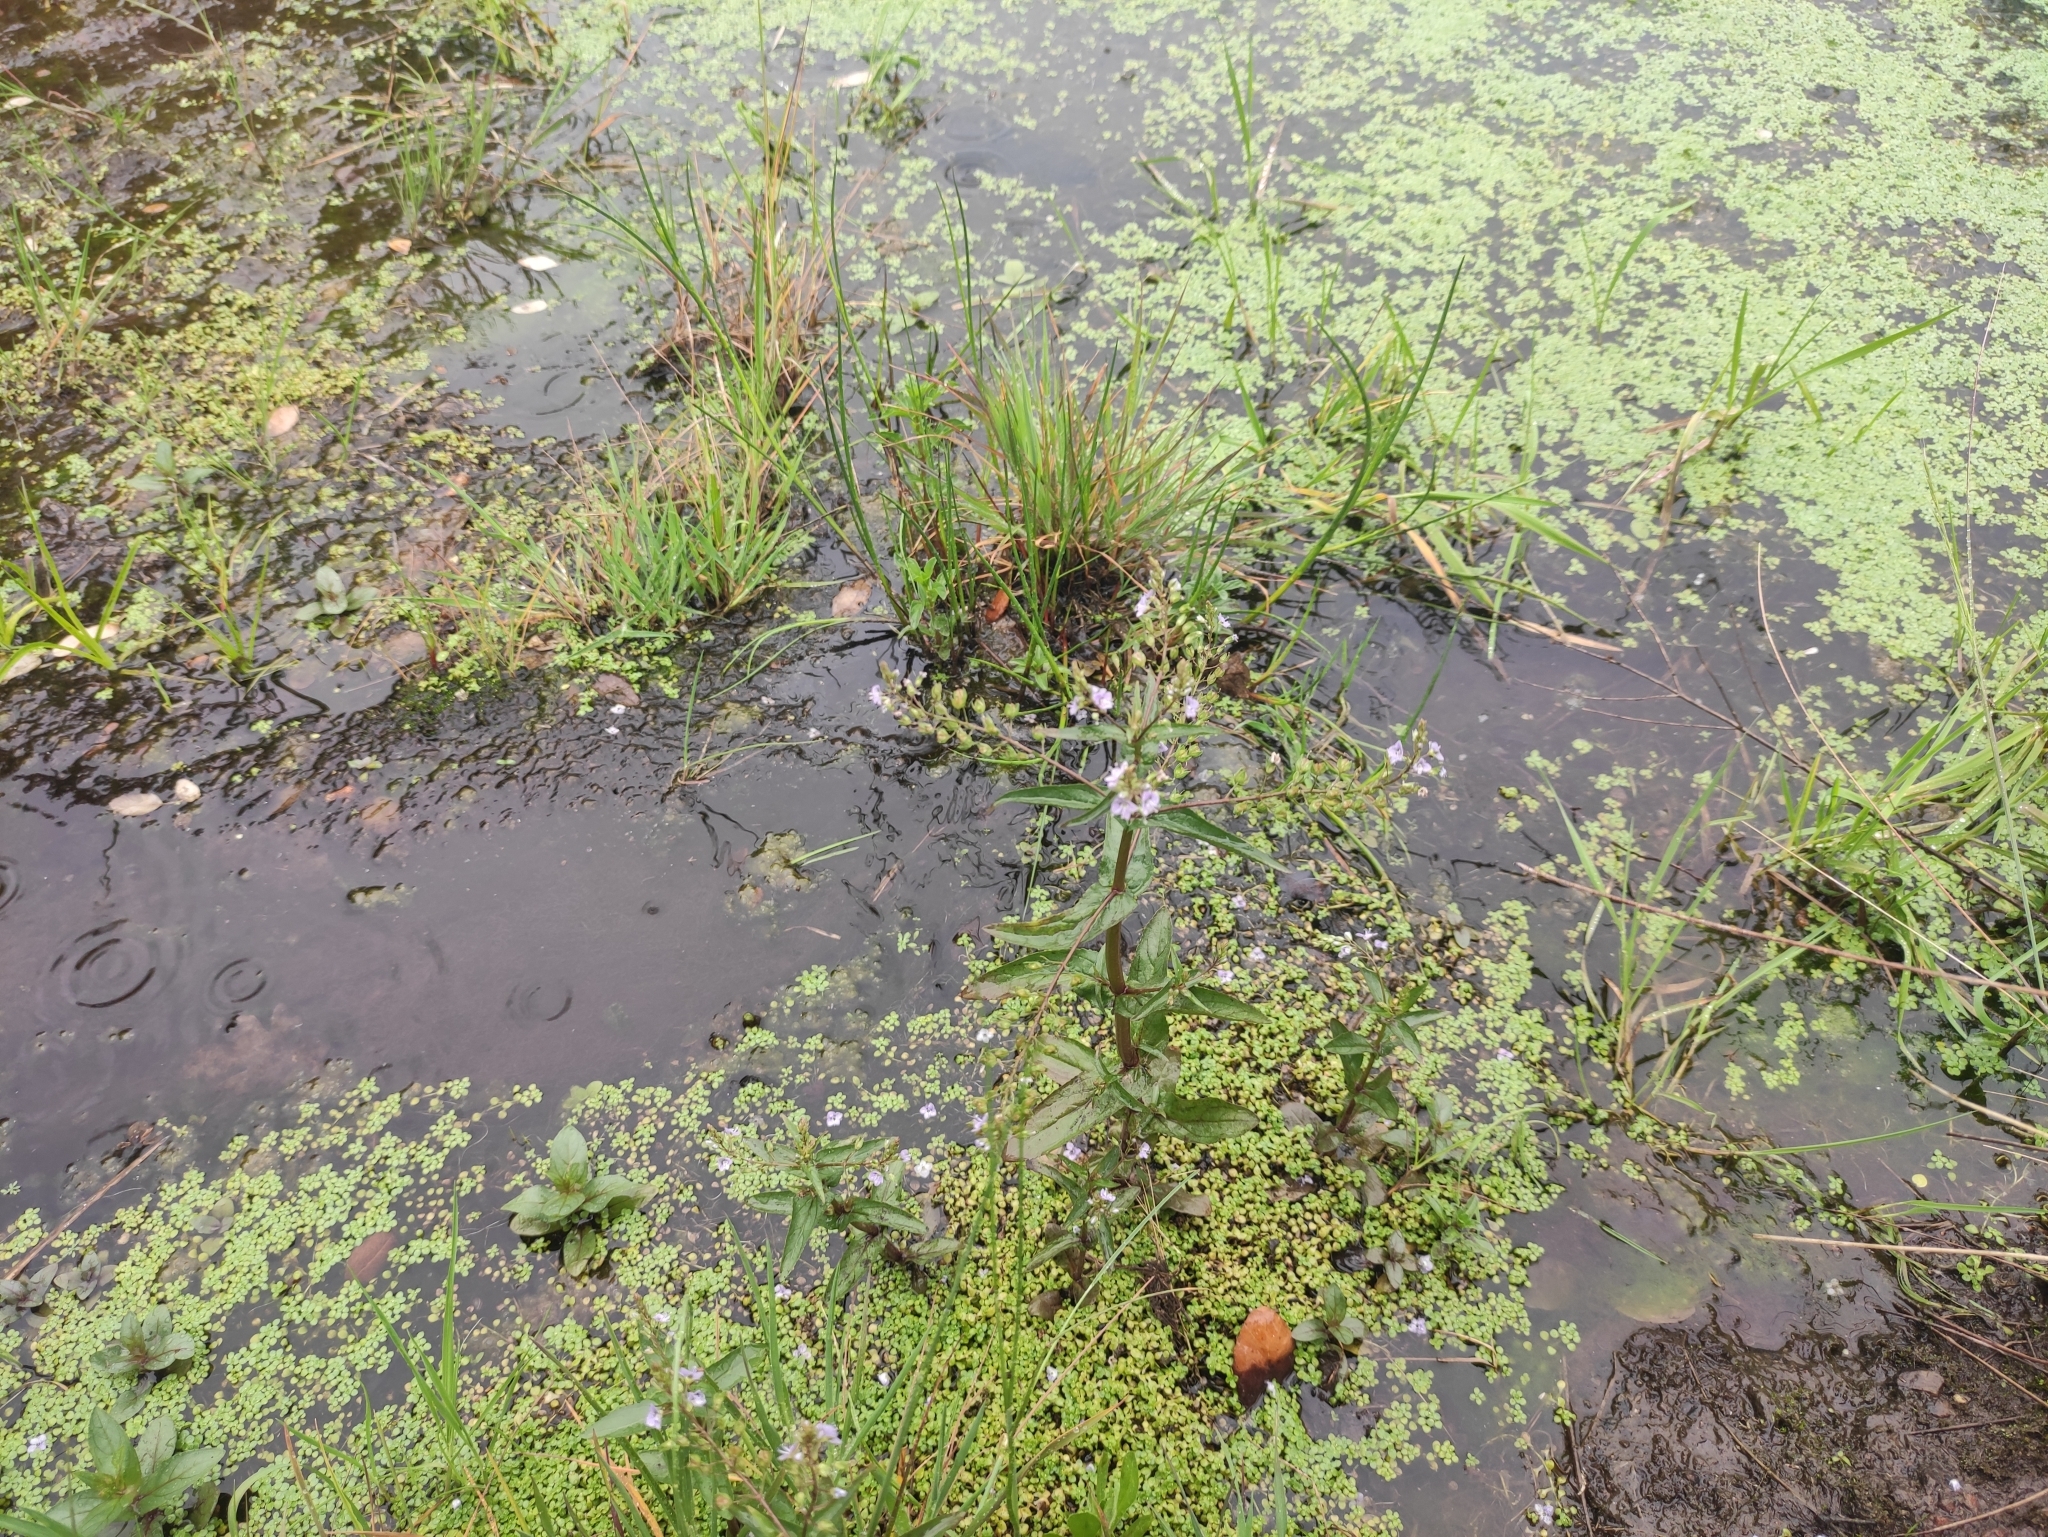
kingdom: Plantae
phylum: Tracheophyta
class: Magnoliopsida
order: Lamiales
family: Plantaginaceae
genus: Veronica
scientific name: Veronica anagallis-aquatica
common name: Water speedwell
